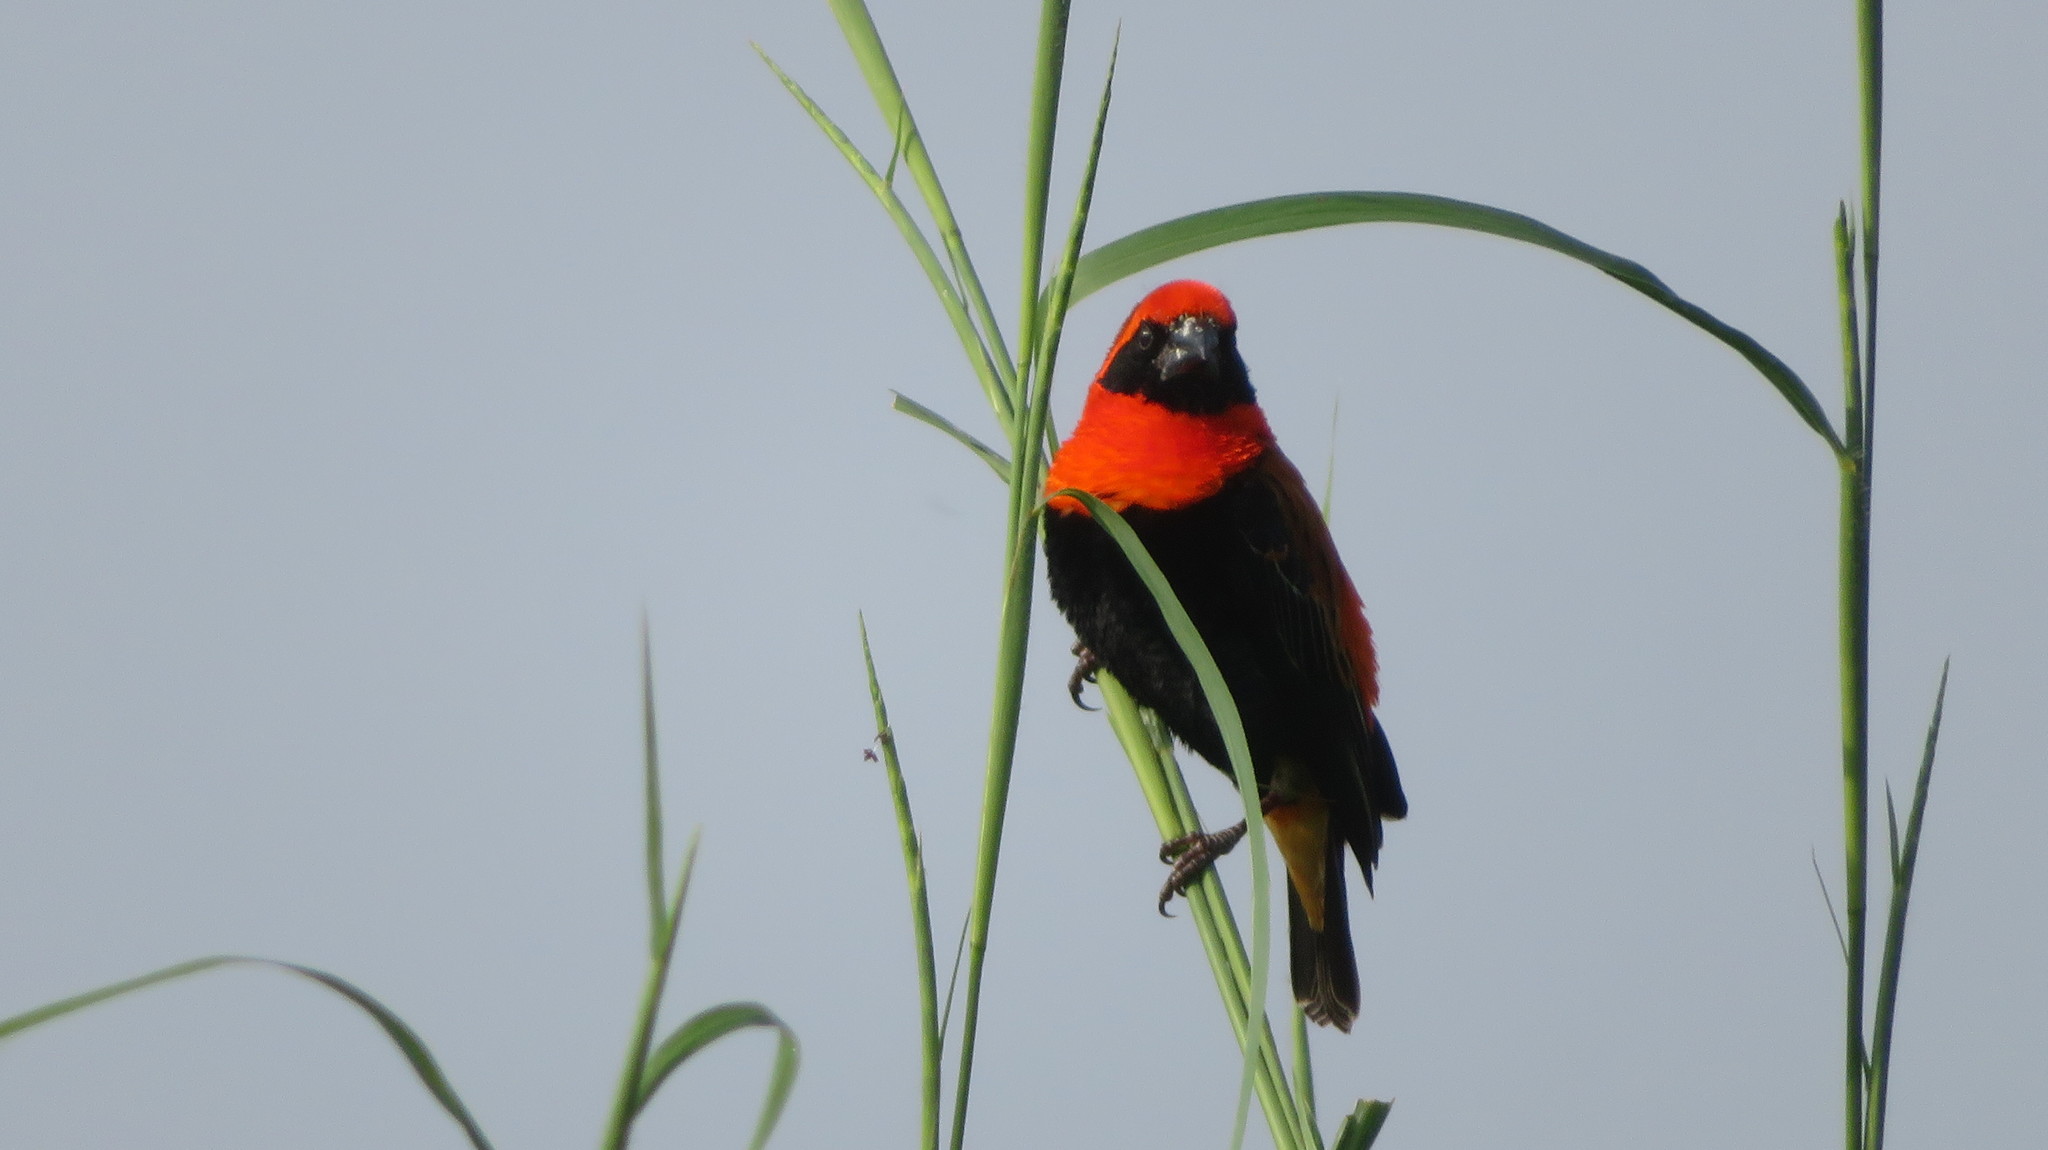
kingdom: Animalia
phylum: Chordata
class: Aves
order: Passeriformes
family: Ploceidae
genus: Euplectes
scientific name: Euplectes hordeaceus
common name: Black-winged red bishop
